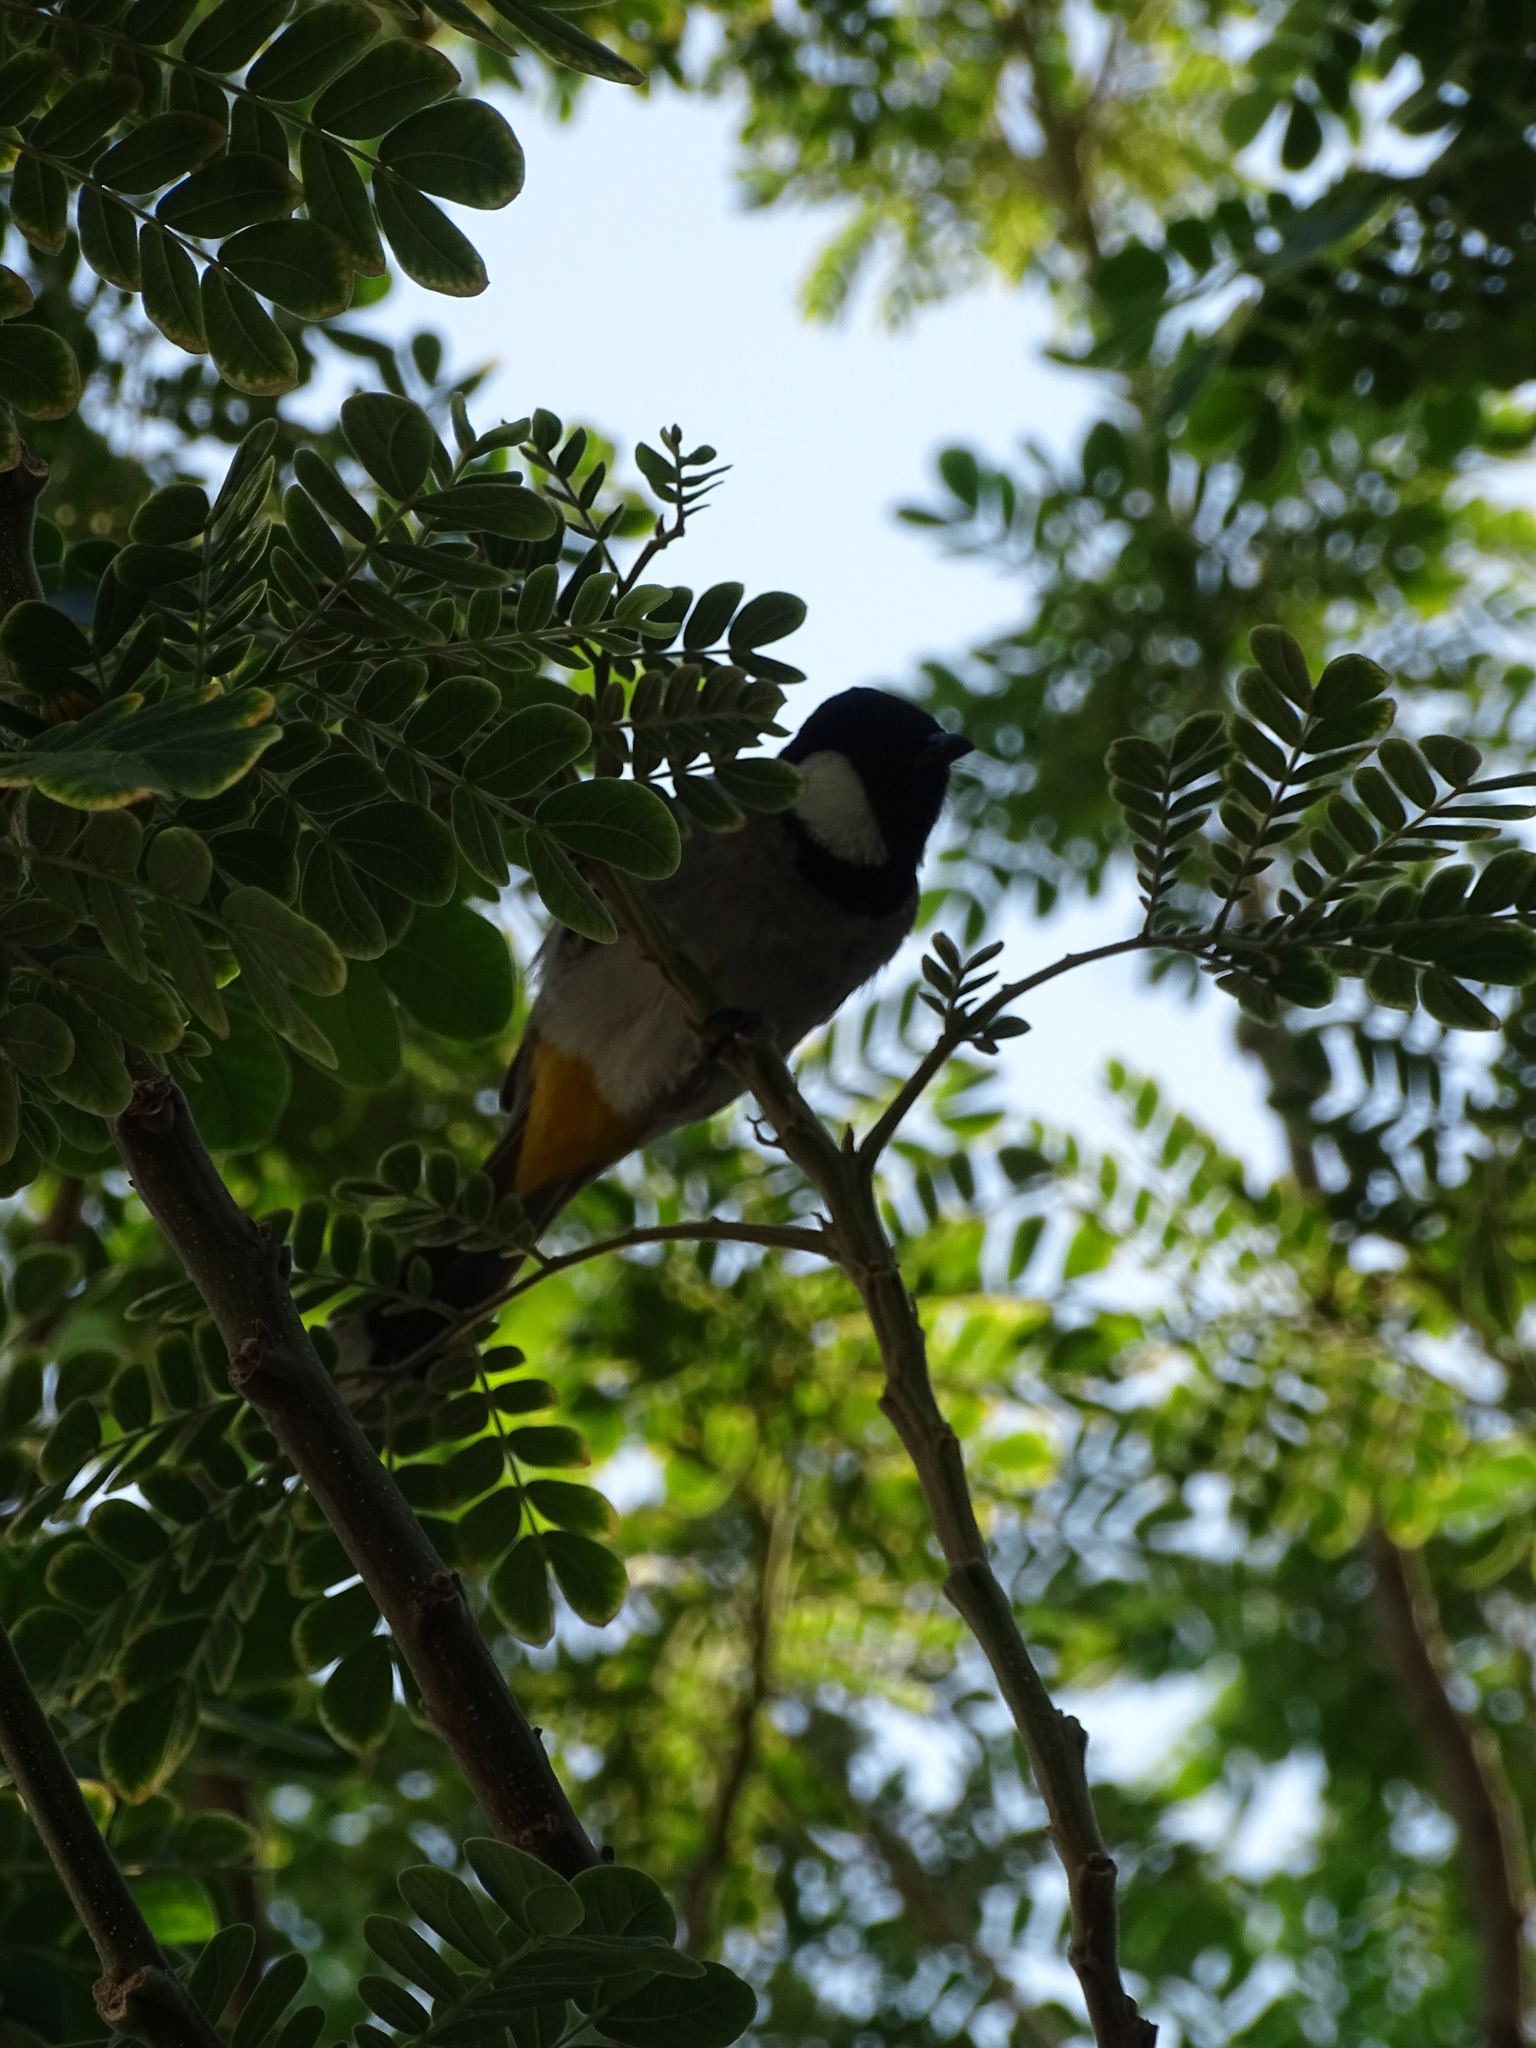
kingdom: Animalia
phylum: Chordata
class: Aves
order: Passeriformes
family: Pycnonotidae
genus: Pycnonotus
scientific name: Pycnonotus leucotis
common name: White-eared bulbul
